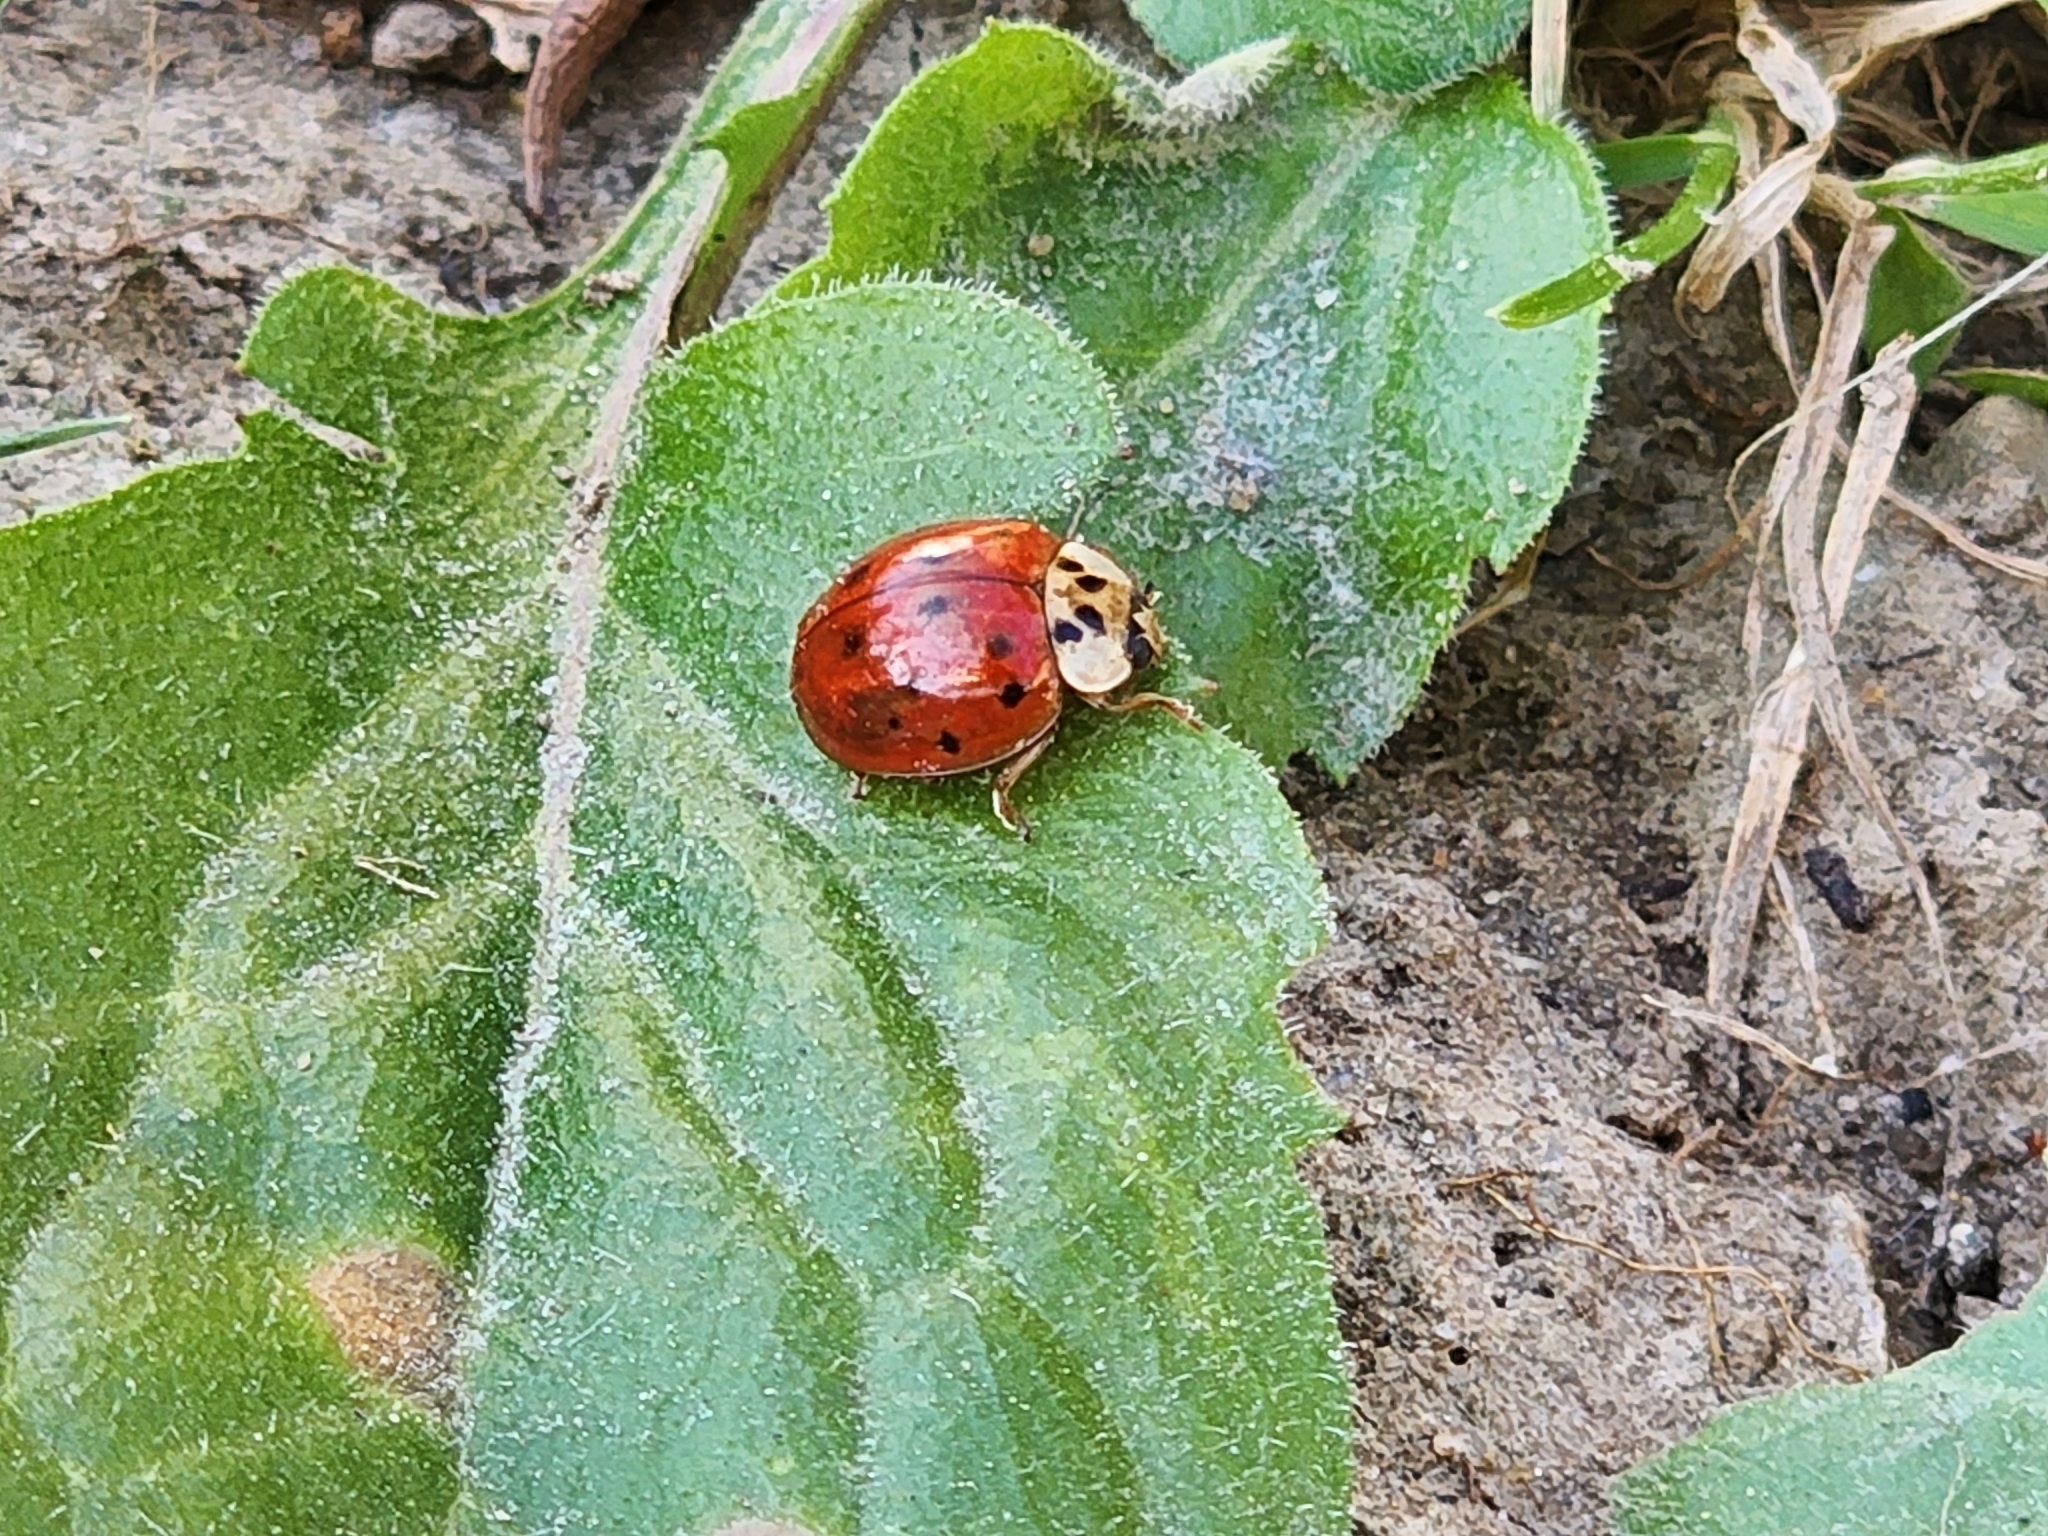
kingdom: Animalia
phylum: Arthropoda
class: Insecta
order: Coleoptera
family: Coccinellidae
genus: Harmonia
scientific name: Harmonia axyridis
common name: Harlequin ladybird
